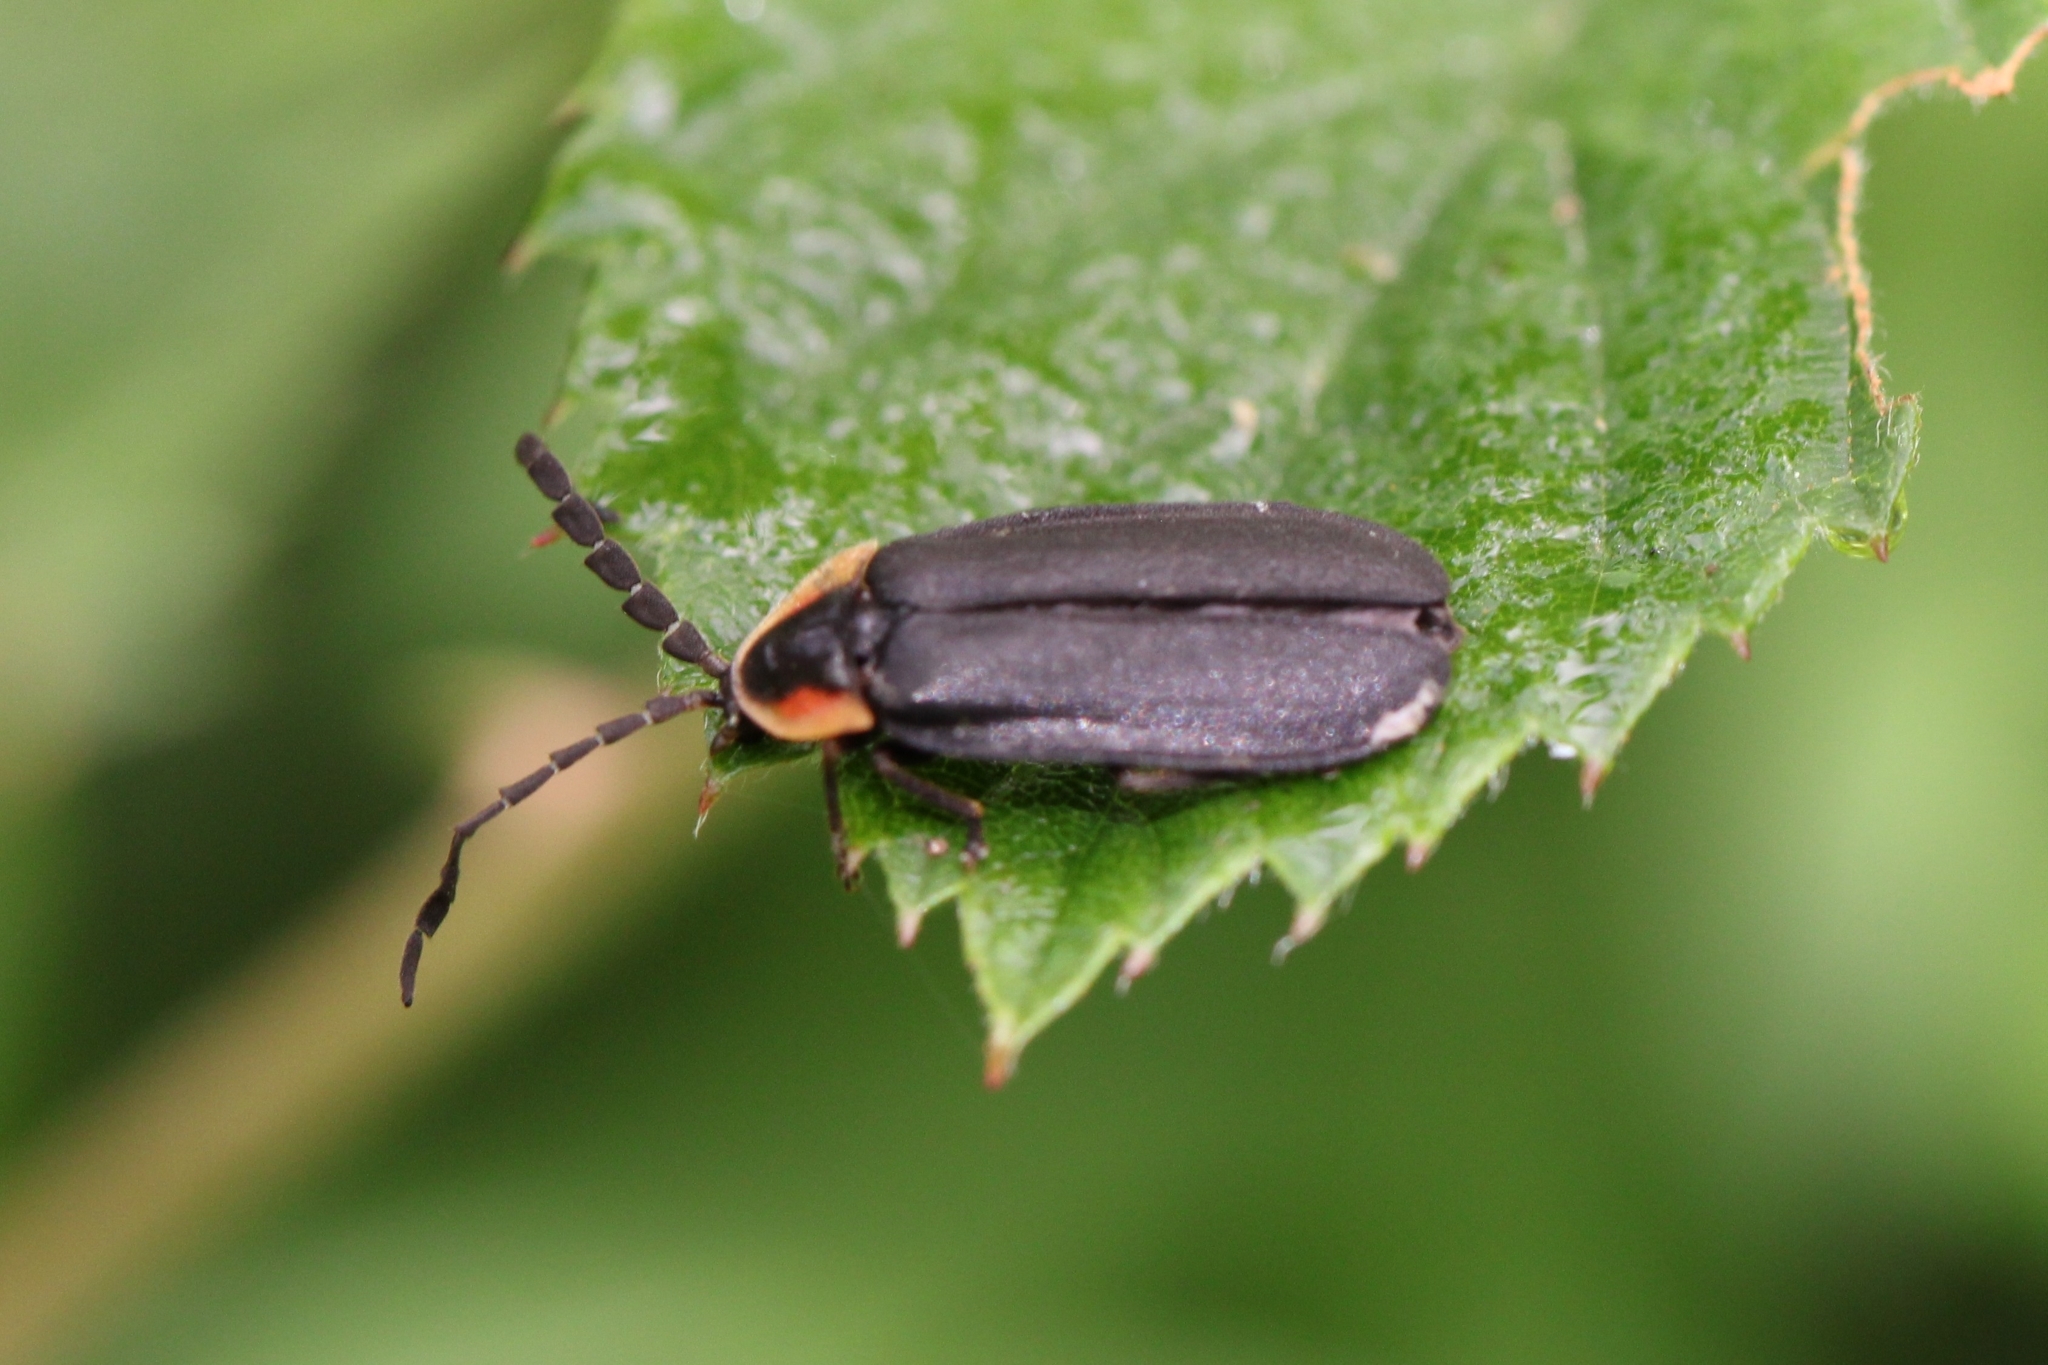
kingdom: Animalia
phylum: Arthropoda
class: Insecta
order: Coleoptera
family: Lampyridae
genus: Lucidota
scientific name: Lucidota atra
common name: Black firefly
